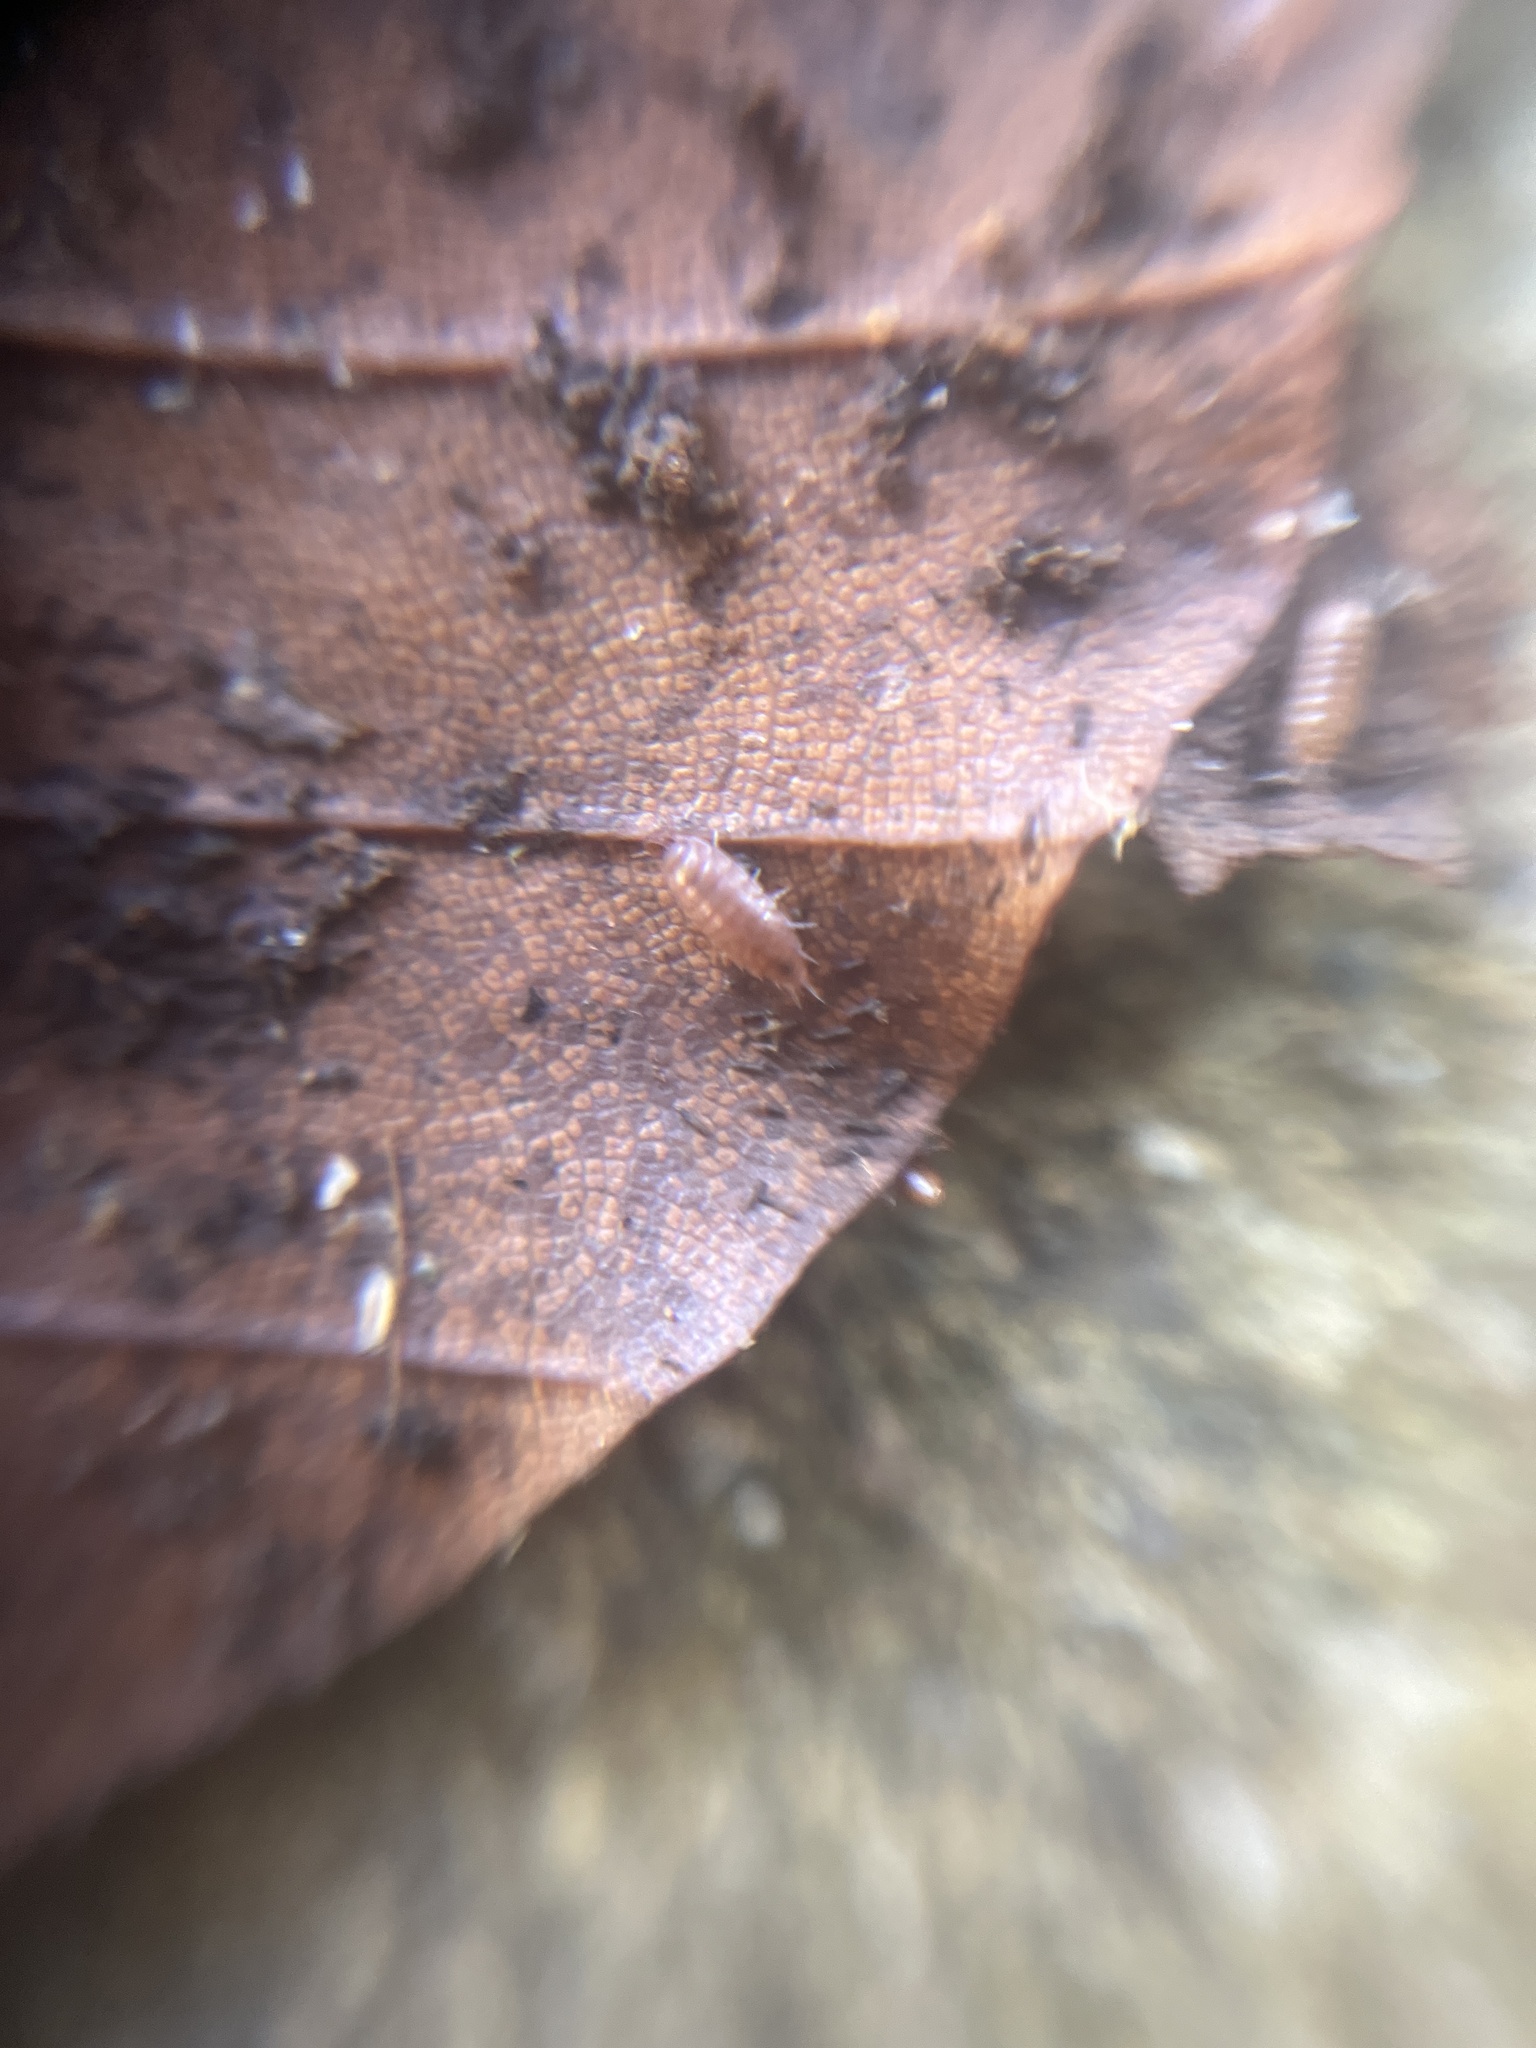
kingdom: Animalia
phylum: Arthropoda
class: Malacostraca
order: Isopoda
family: Trichoniscidae
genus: Trichoniscus
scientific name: Trichoniscus
